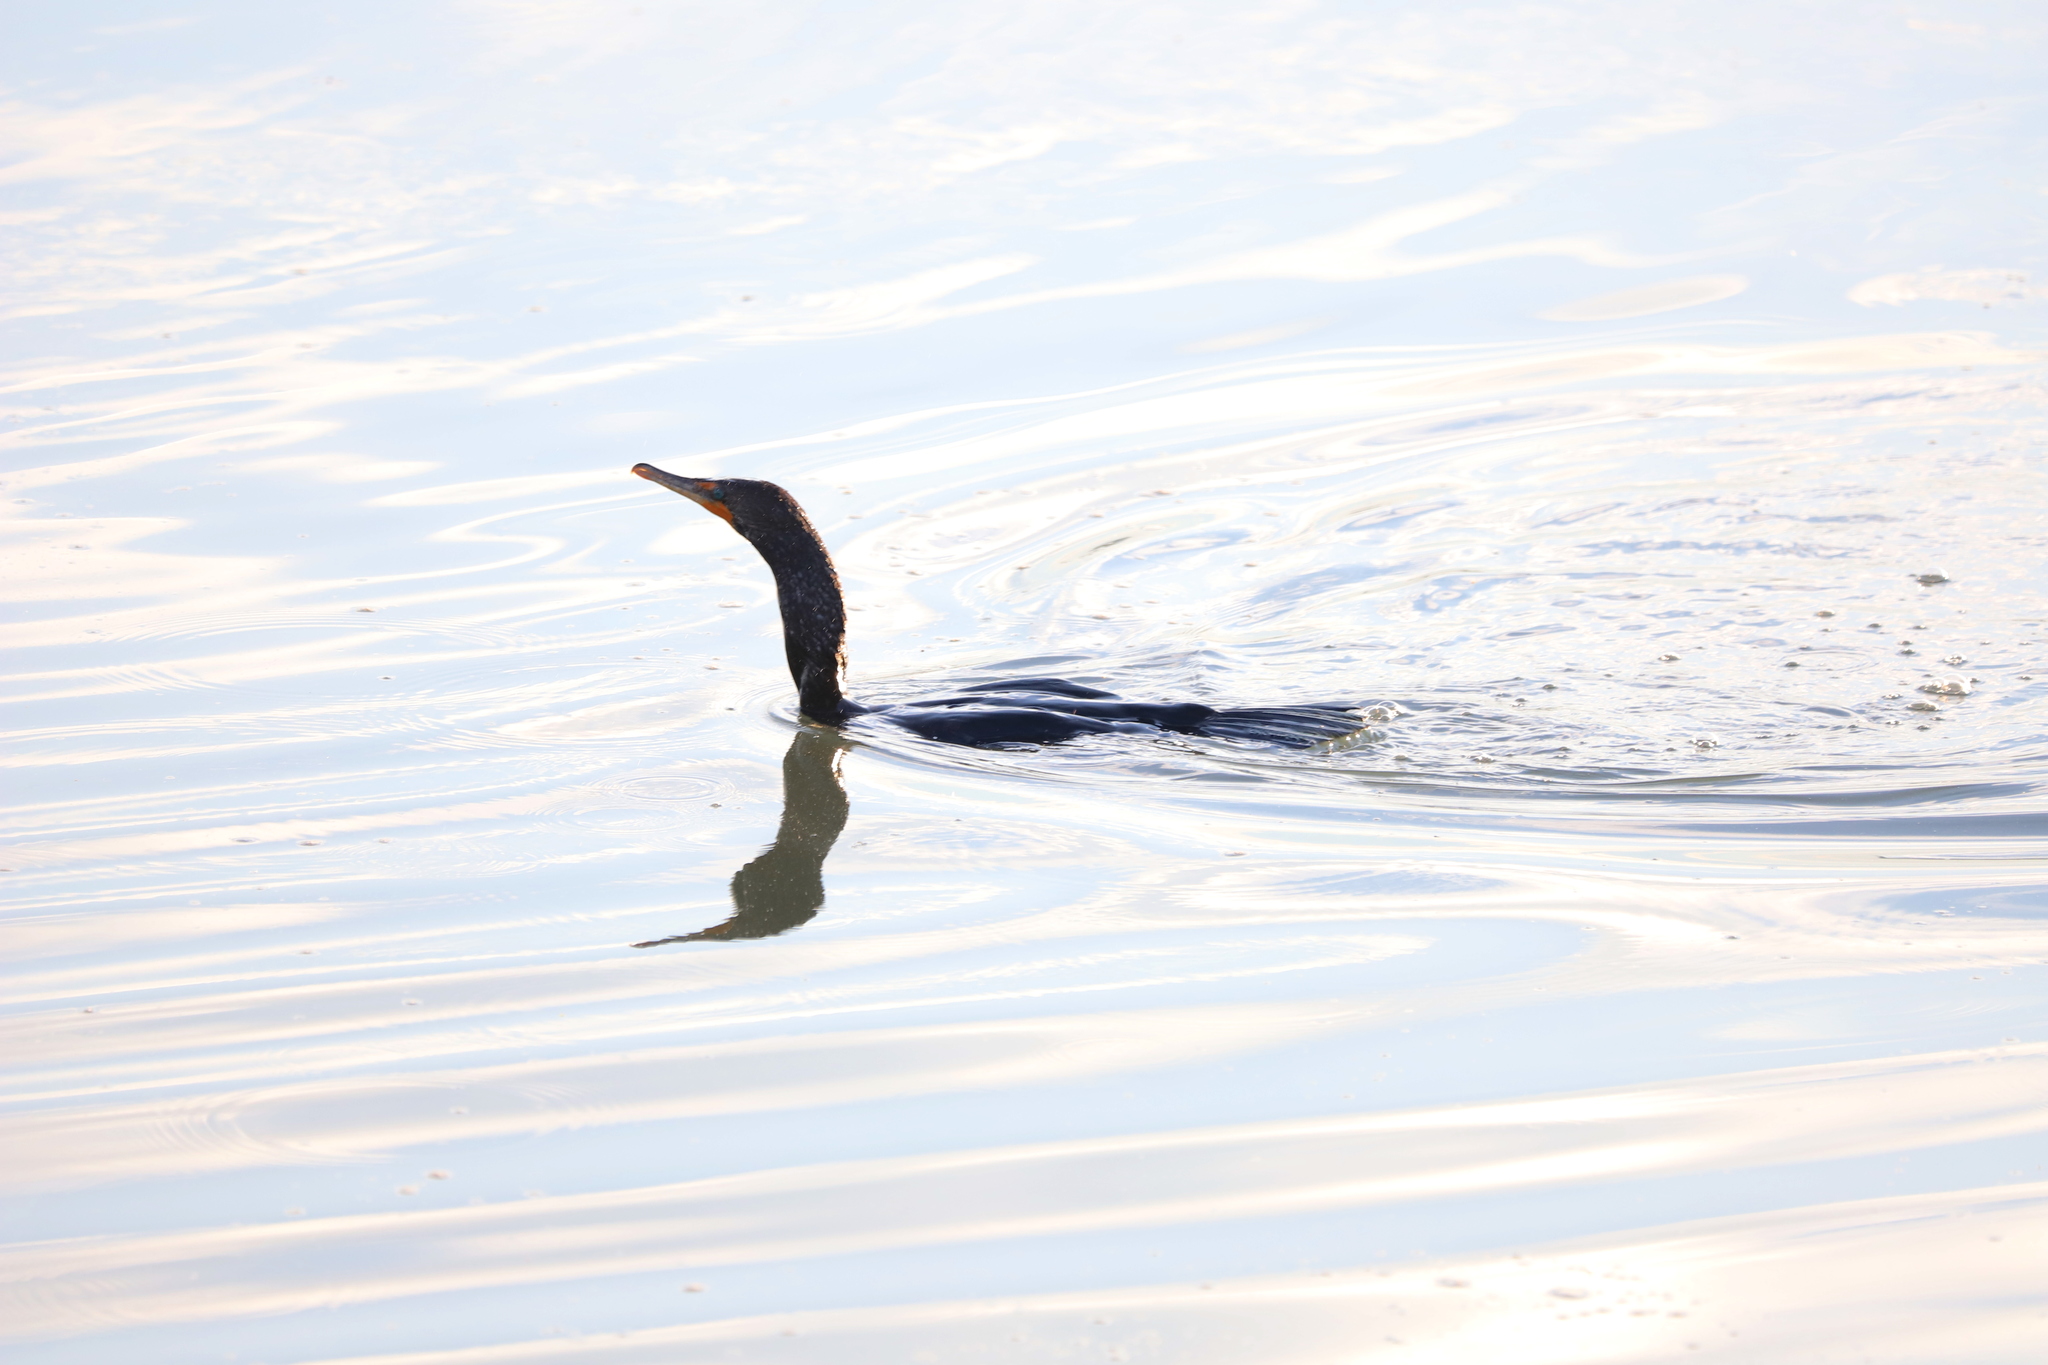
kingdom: Animalia
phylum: Chordata
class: Aves
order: Suliformes
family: Phalacrocoracidae
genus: Phalacrocorax
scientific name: Phalacrocorax auritus
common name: Double-crested cormorant
